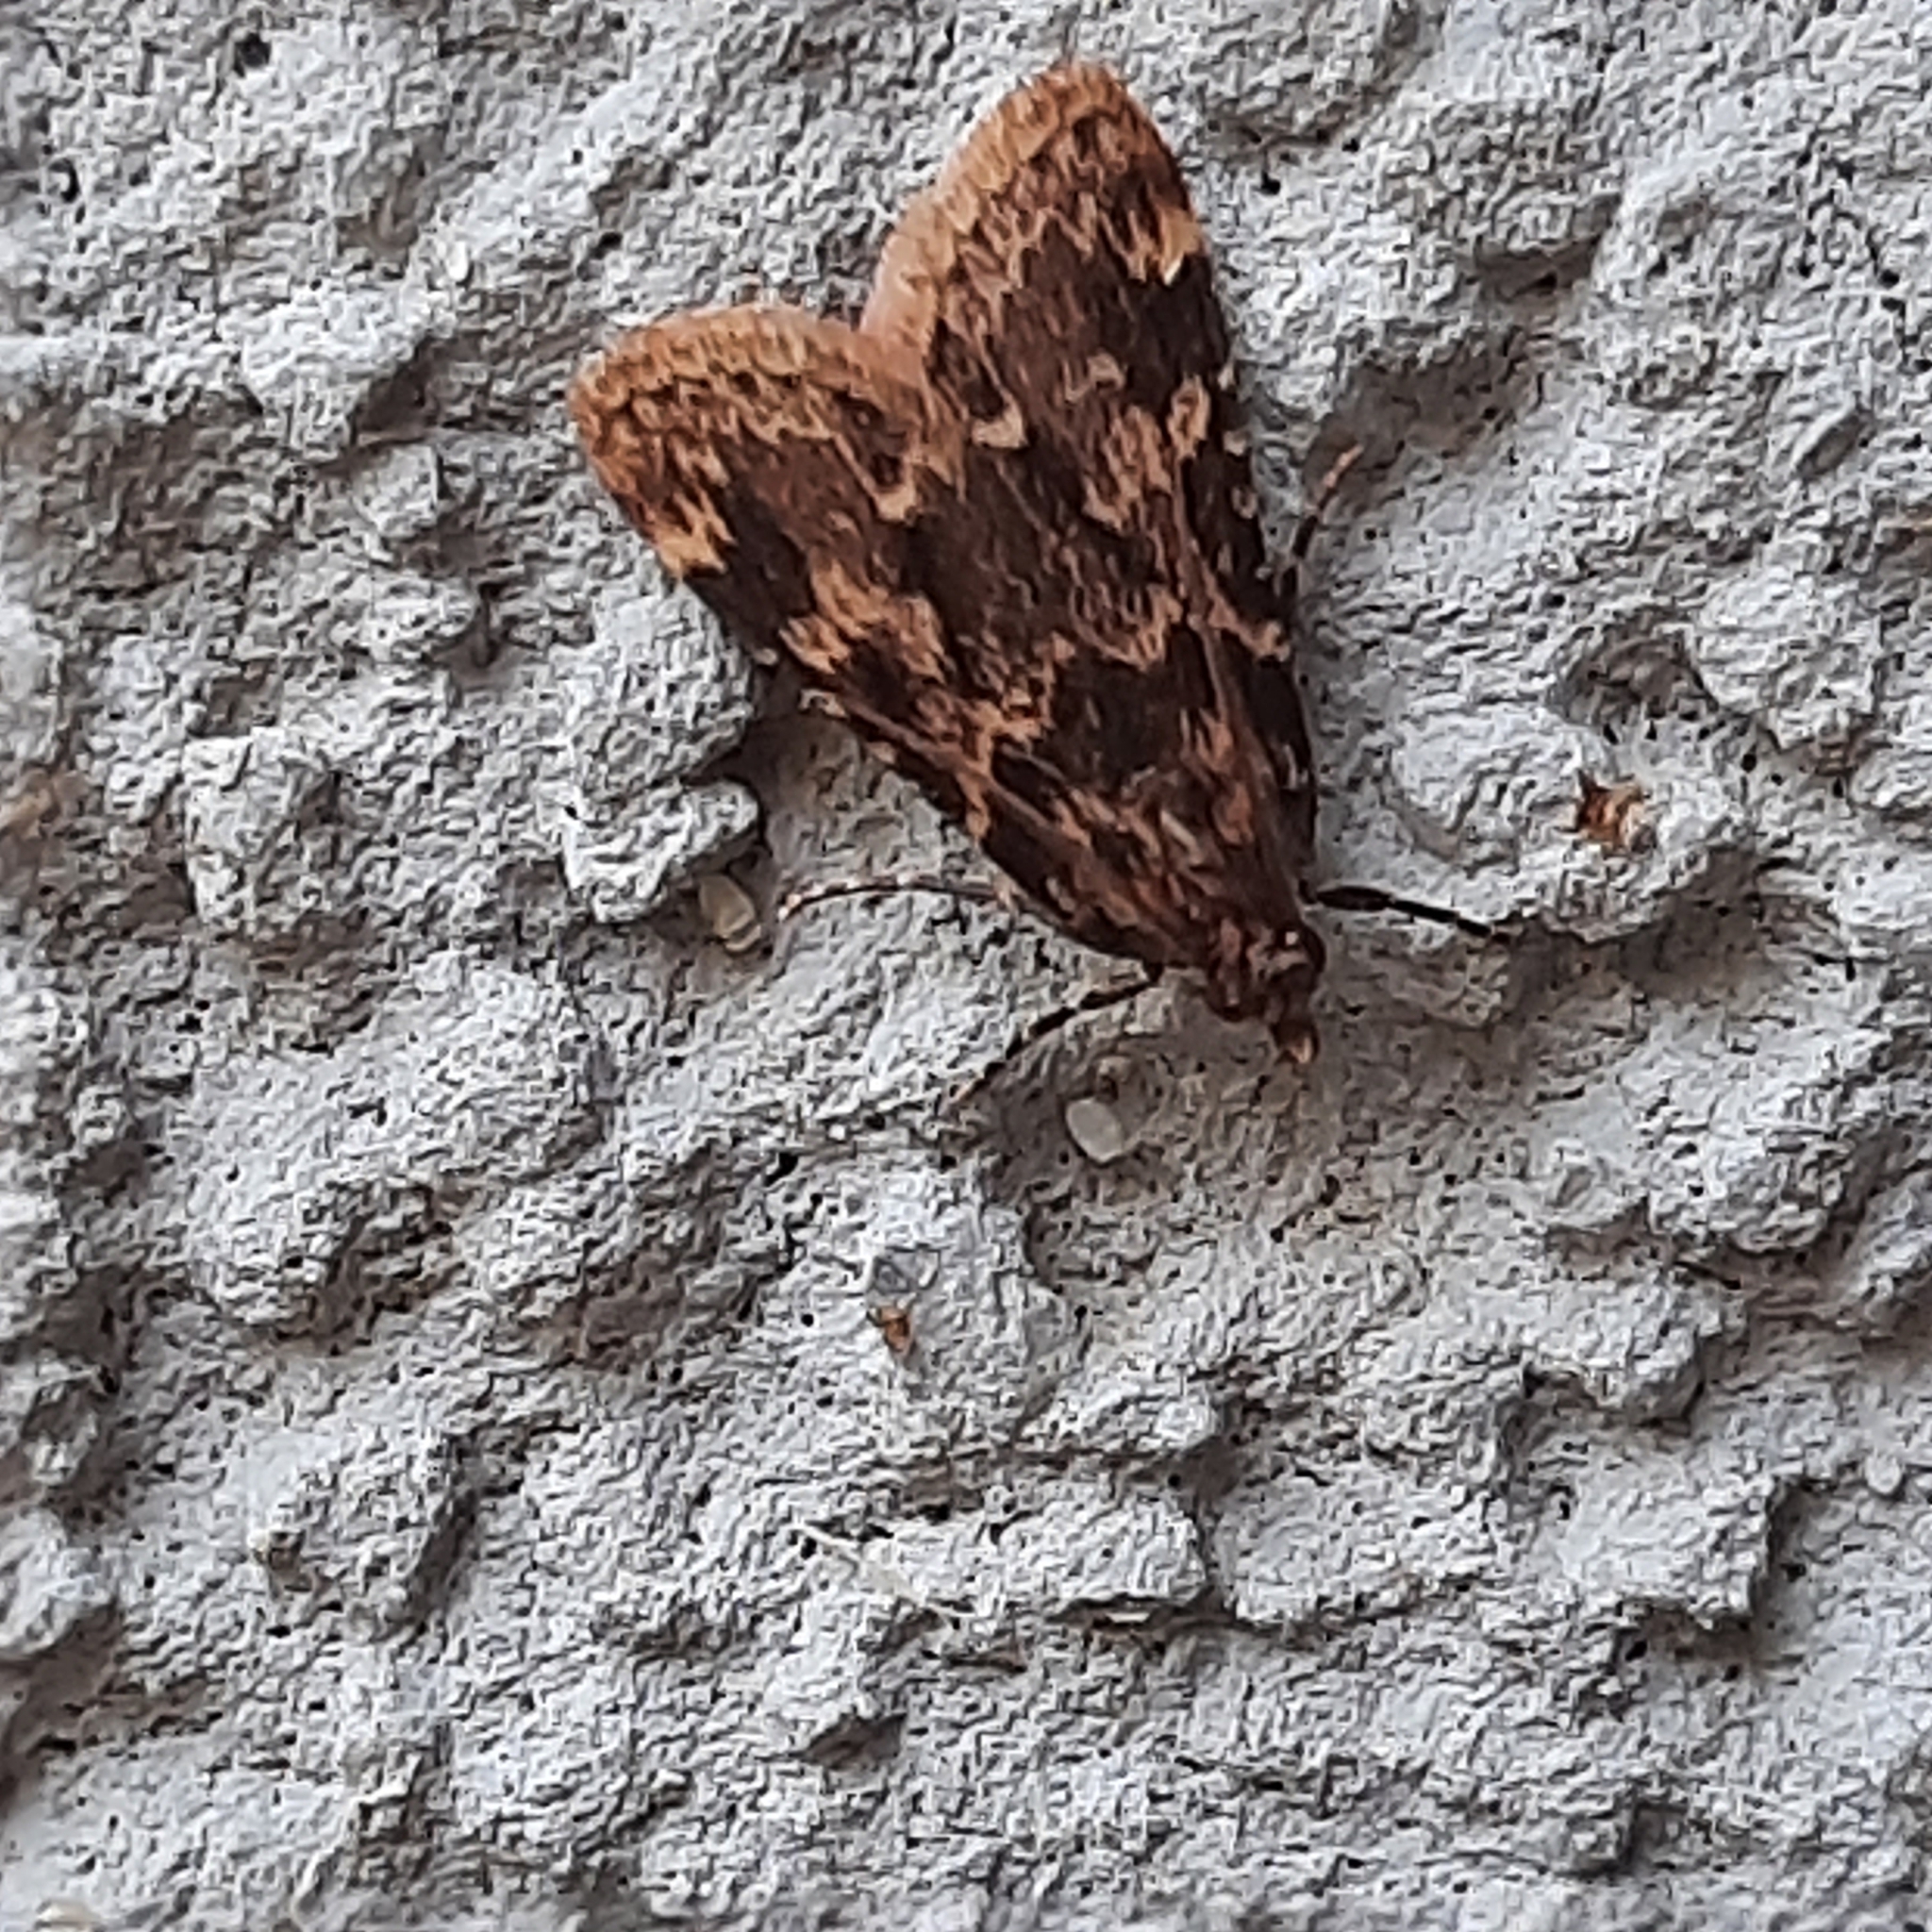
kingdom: Animalia
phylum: Arthropoda
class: Insecta
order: Lepidoptera
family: Pyralidae
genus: Aglossa
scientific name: Aglossa caprealis
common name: Small tabby
